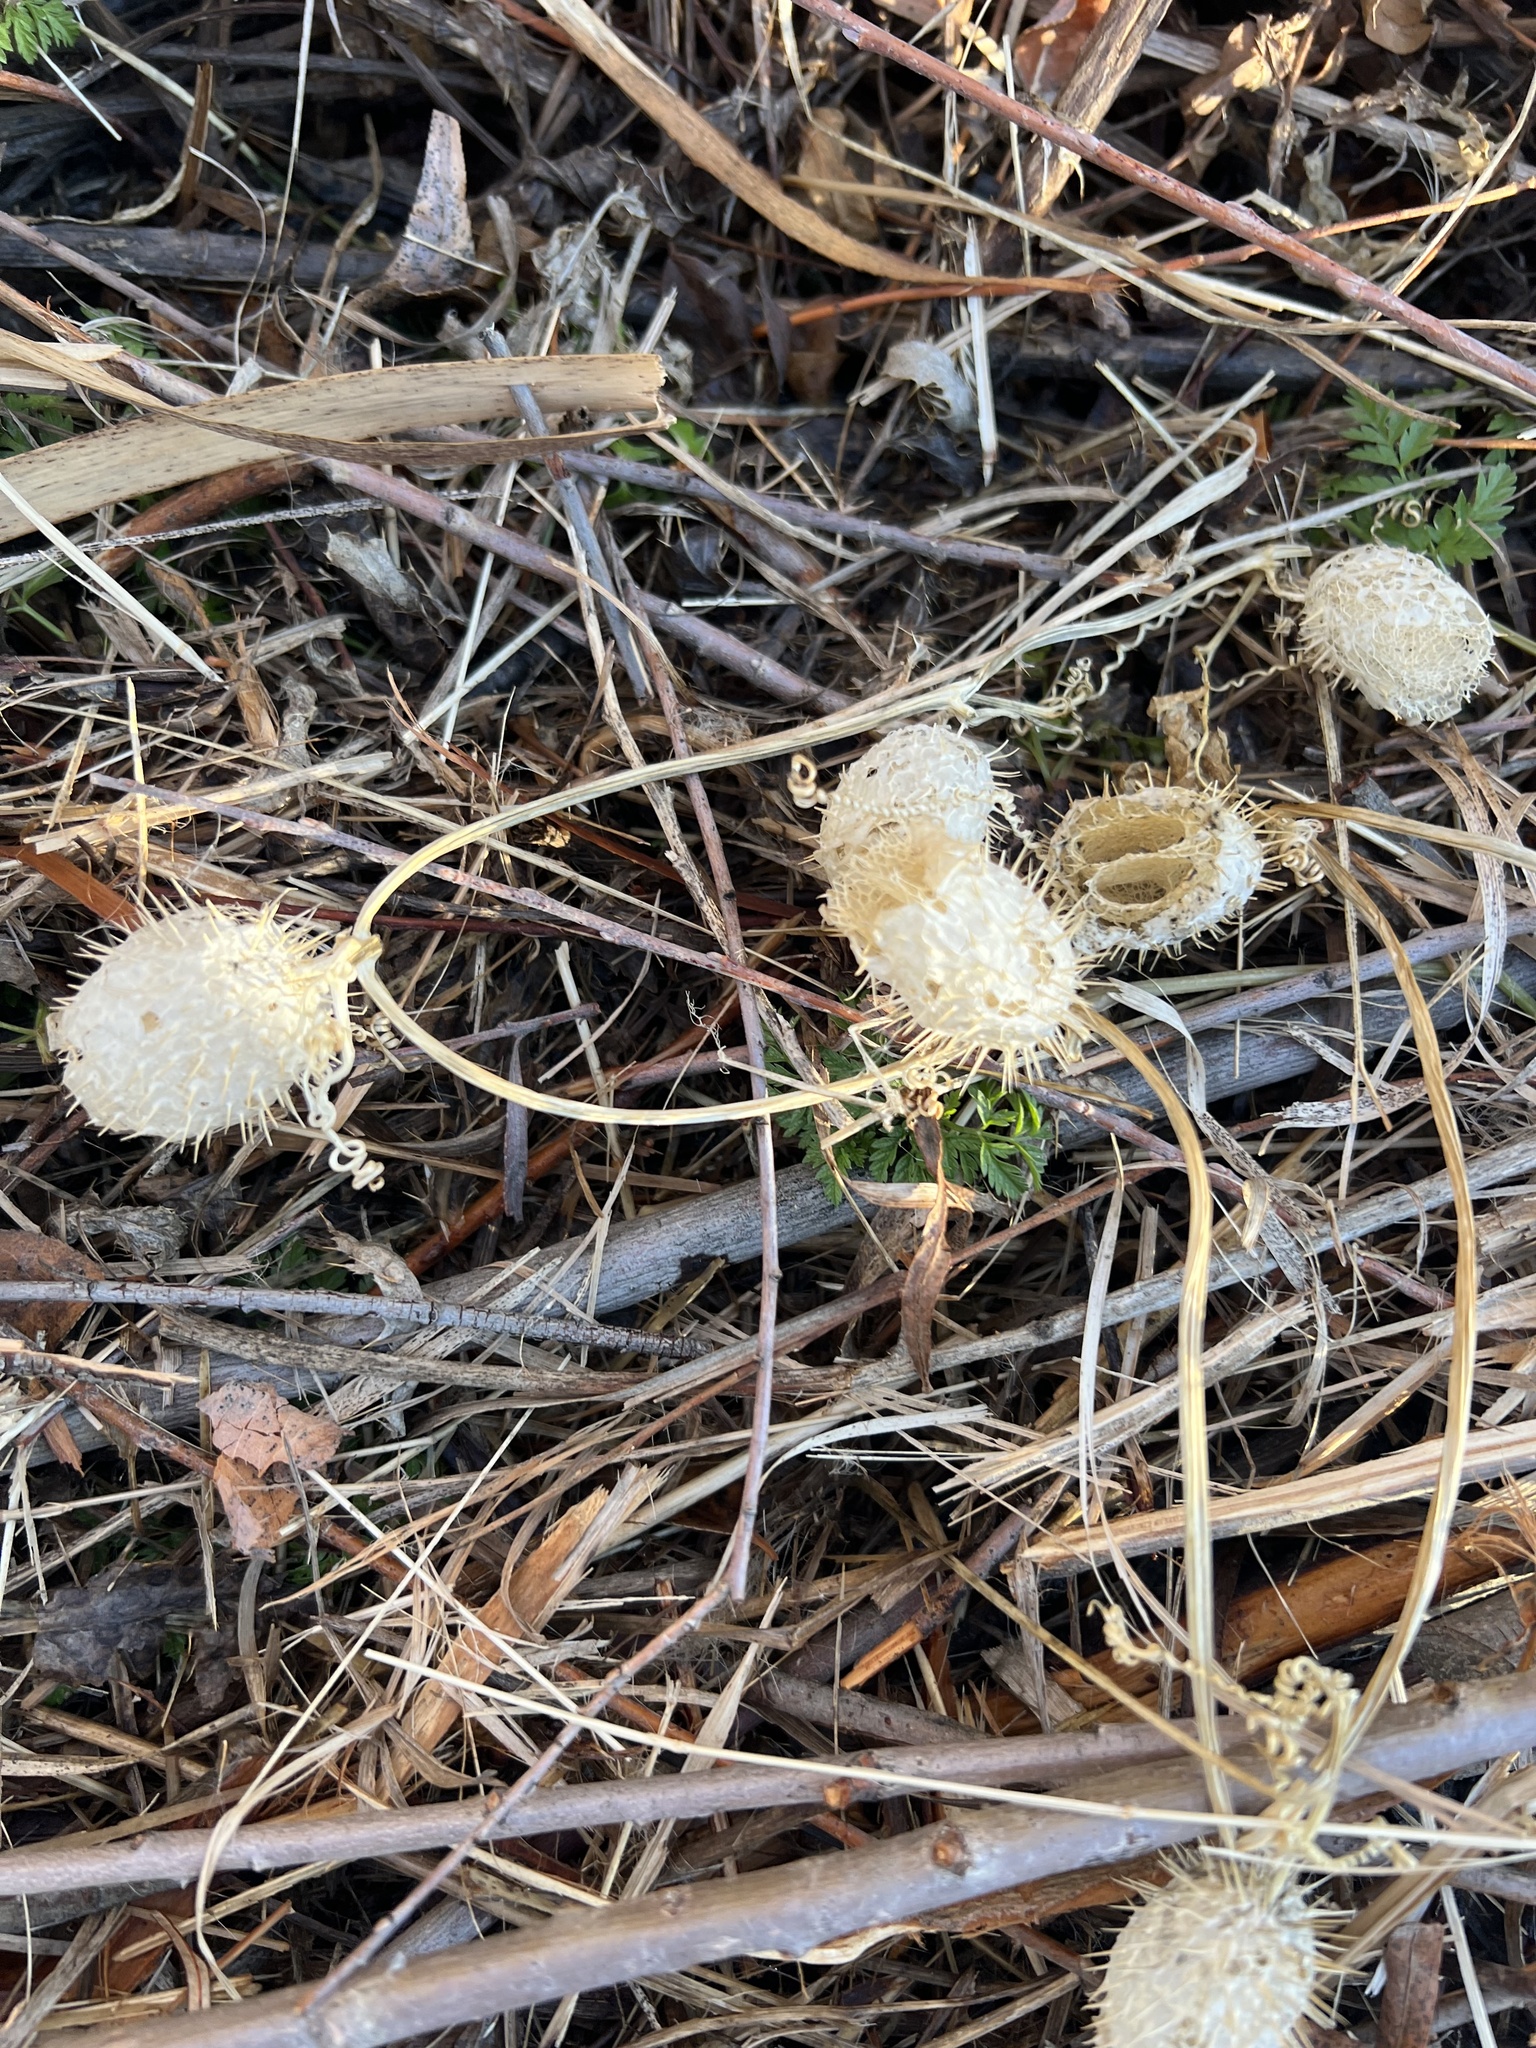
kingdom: Plantae
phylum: Tracheophyta
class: Magnoliopsida
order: Cucurbitales
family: Cucurbitaceae
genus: Echinocystis
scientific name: Echinocystis lobata
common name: Wild cucumber
